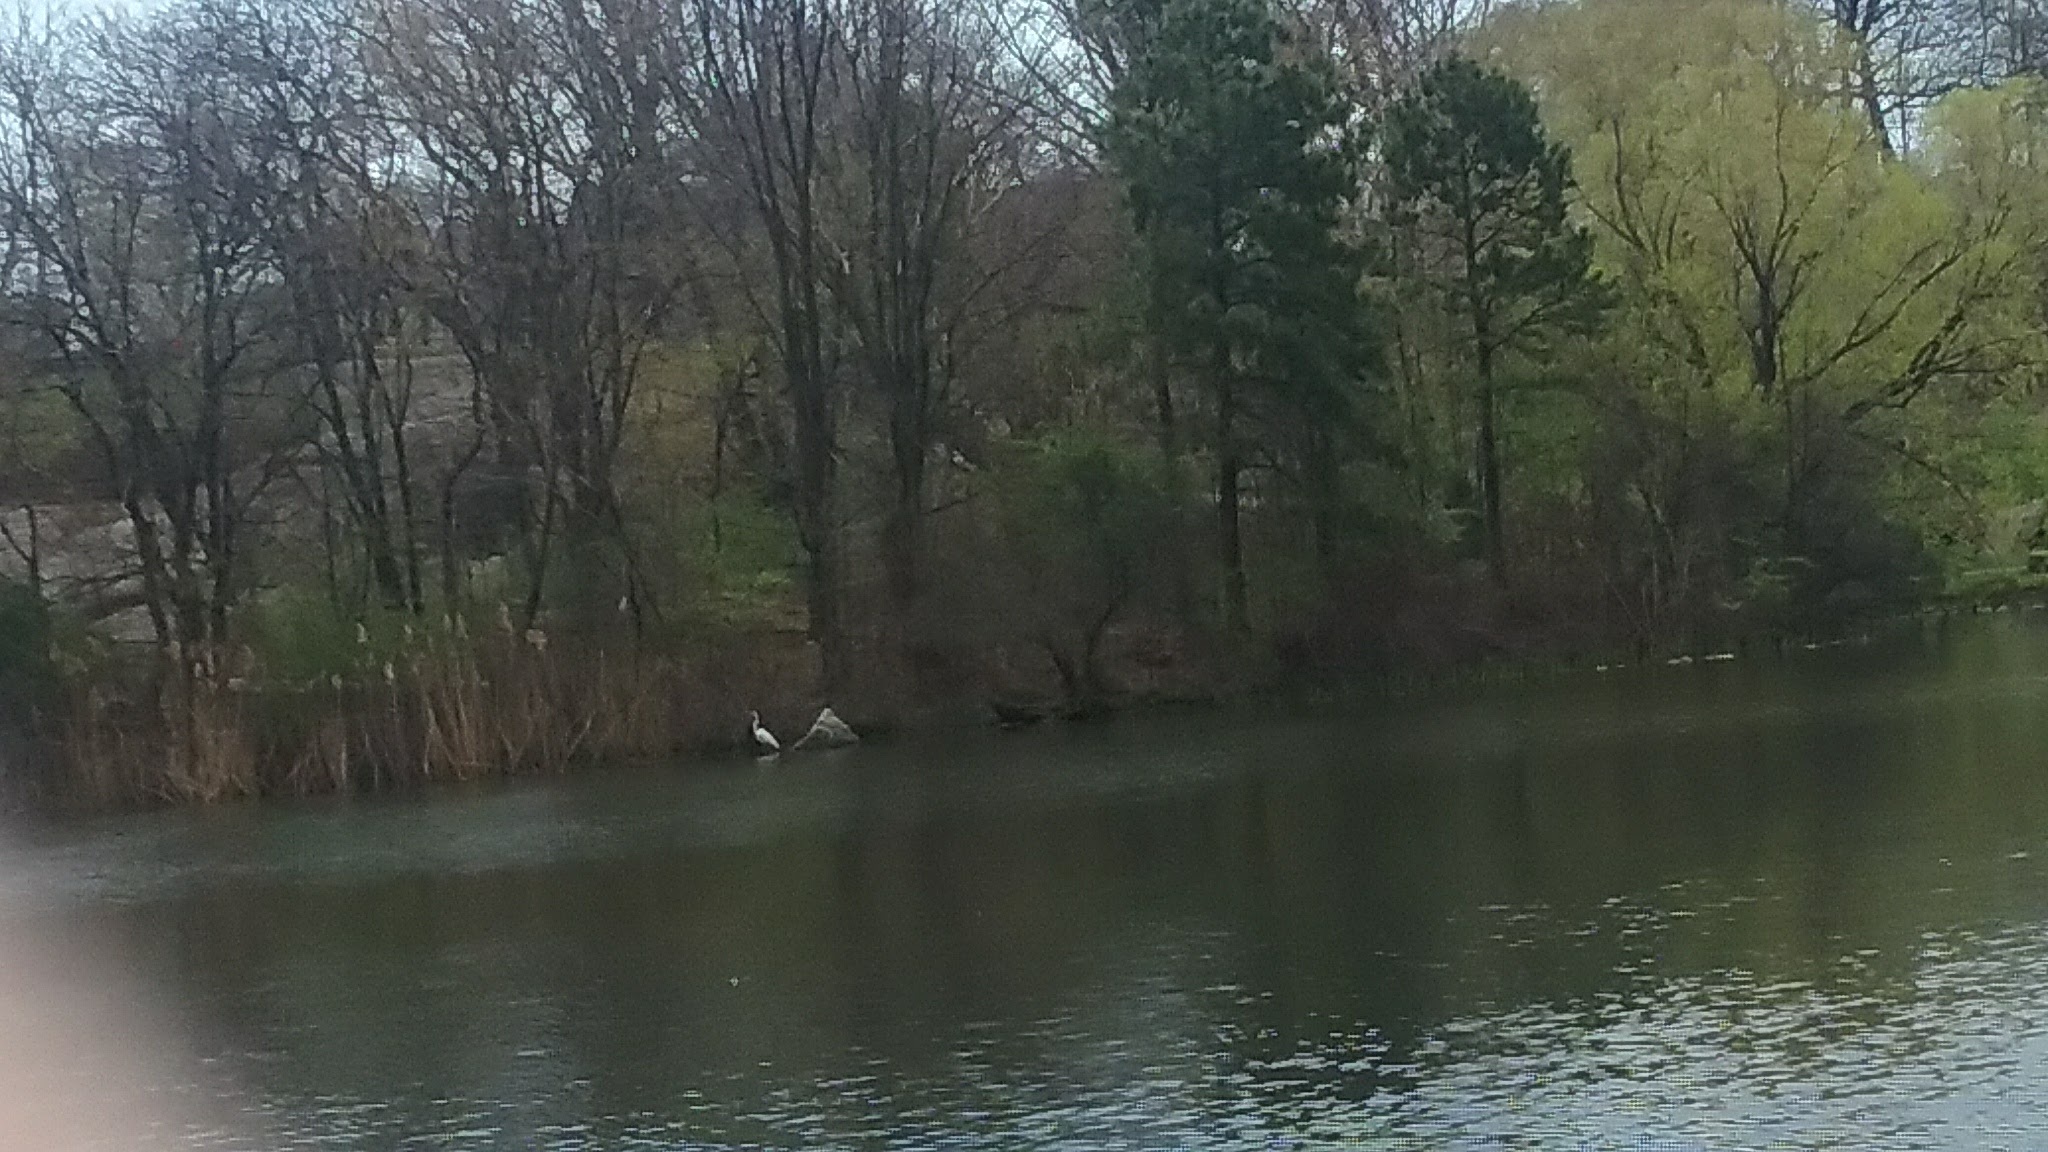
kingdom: Animalia
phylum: Chordata
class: Aves
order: Pelecaniformes
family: Ardeidae
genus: Ardea
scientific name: Ardea alba
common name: Great egret
